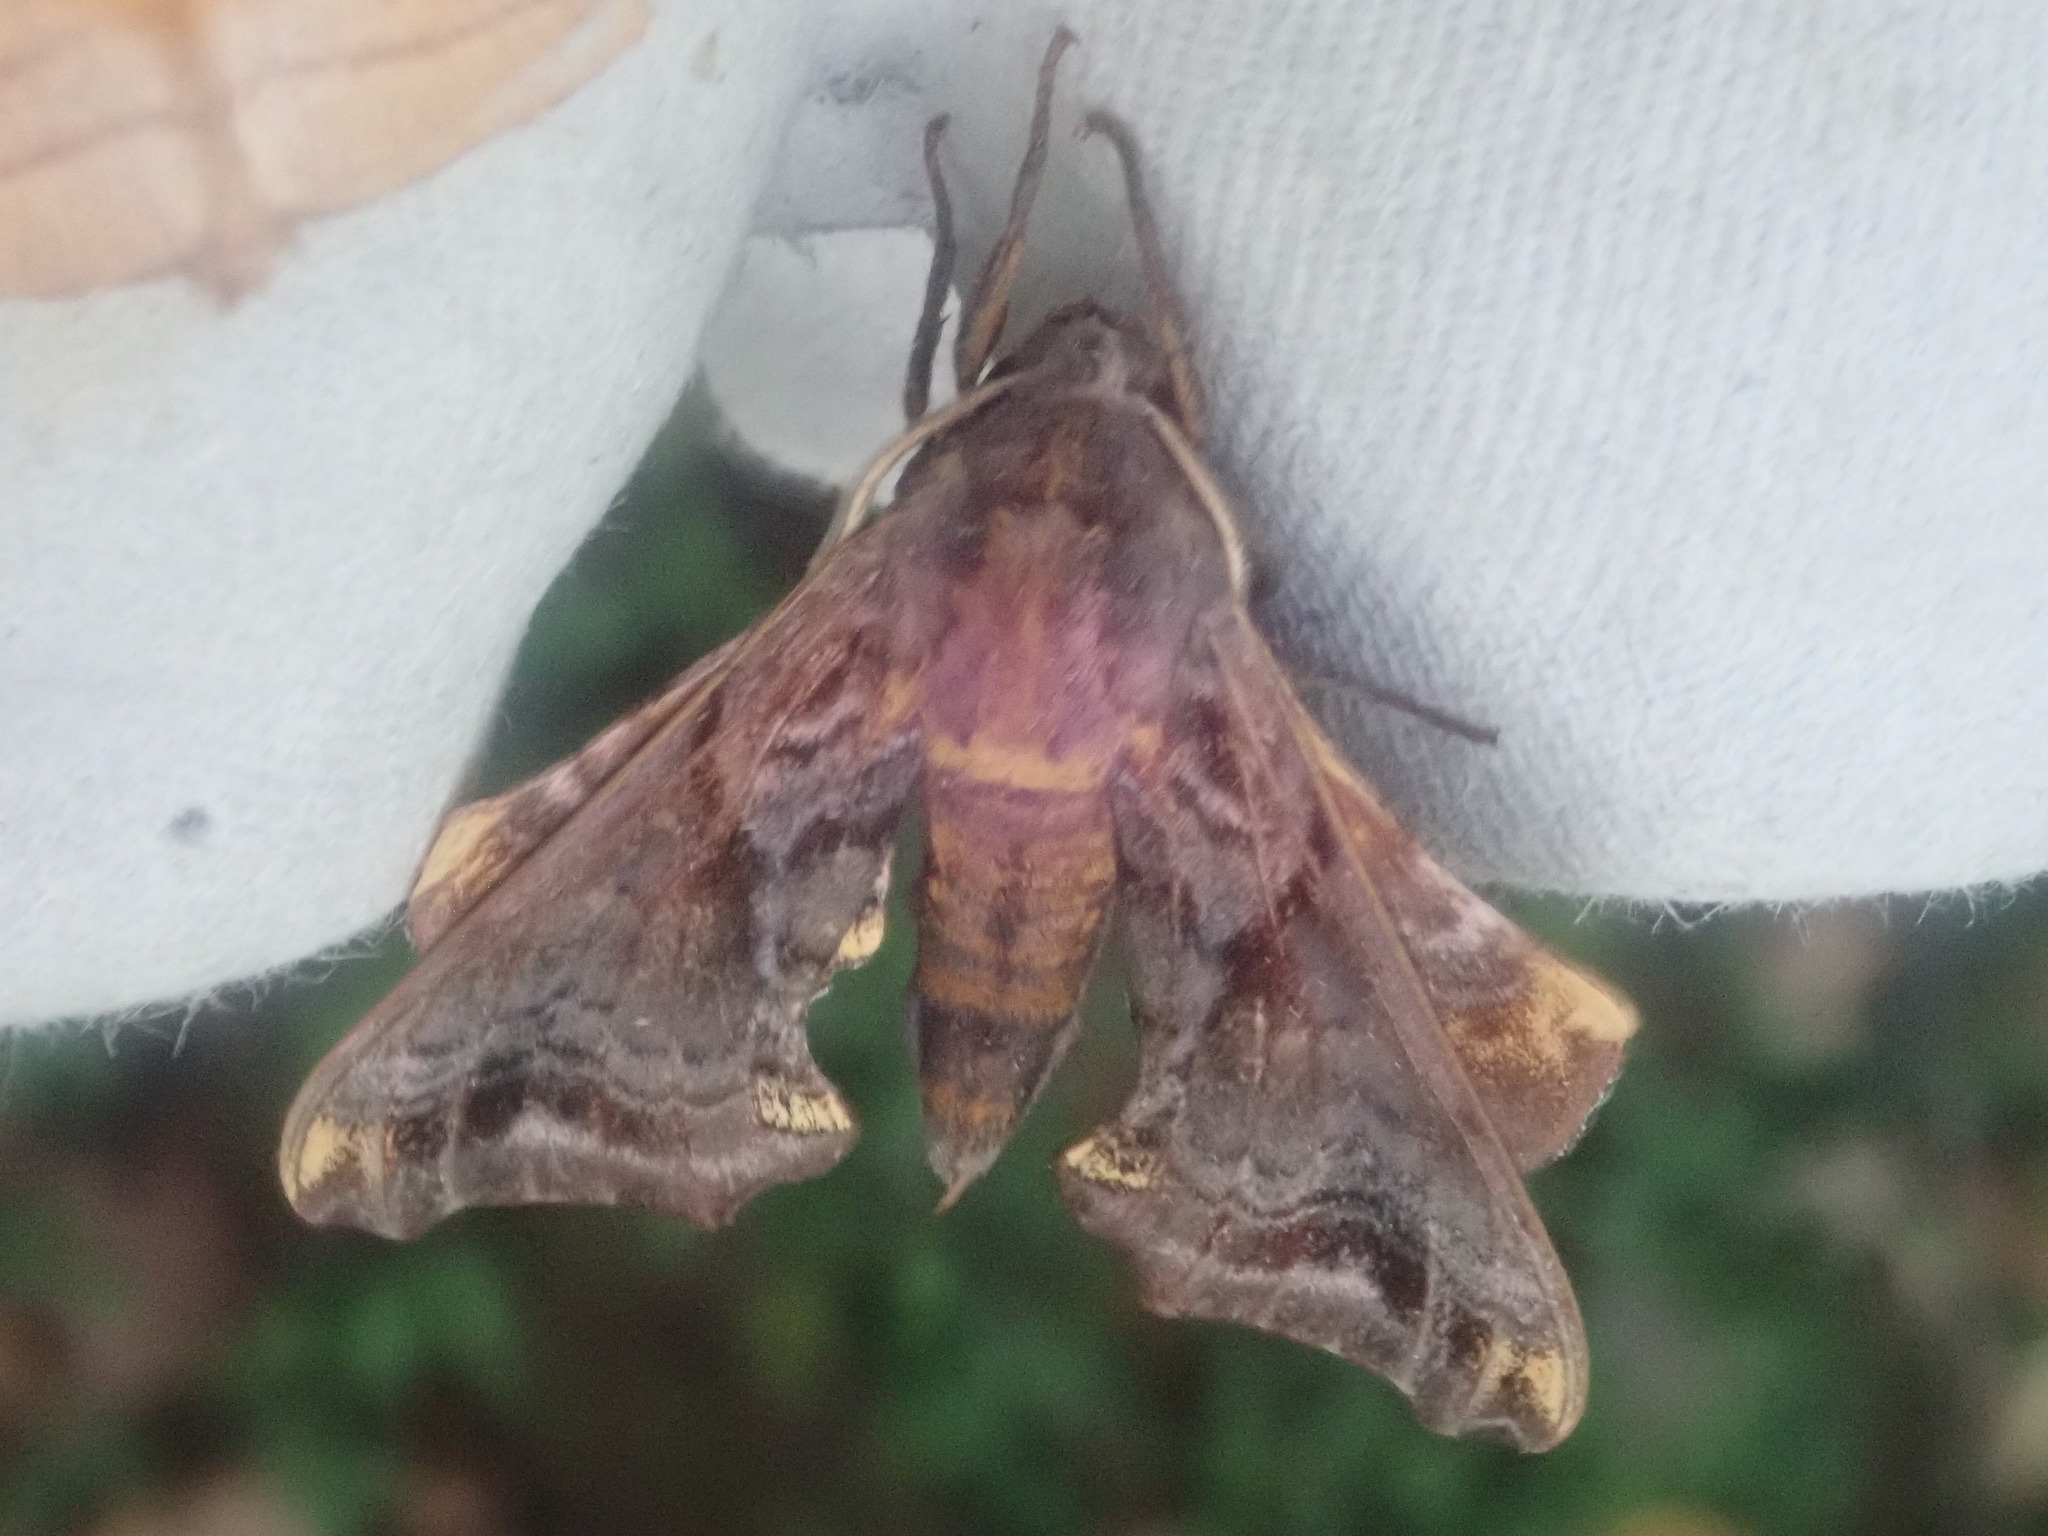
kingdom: Animalia
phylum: Arthropoda
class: Insecta
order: Lepidoptera
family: Sphingidae
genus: Paonias
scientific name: Paonias myops
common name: Small-eyed sphinx
